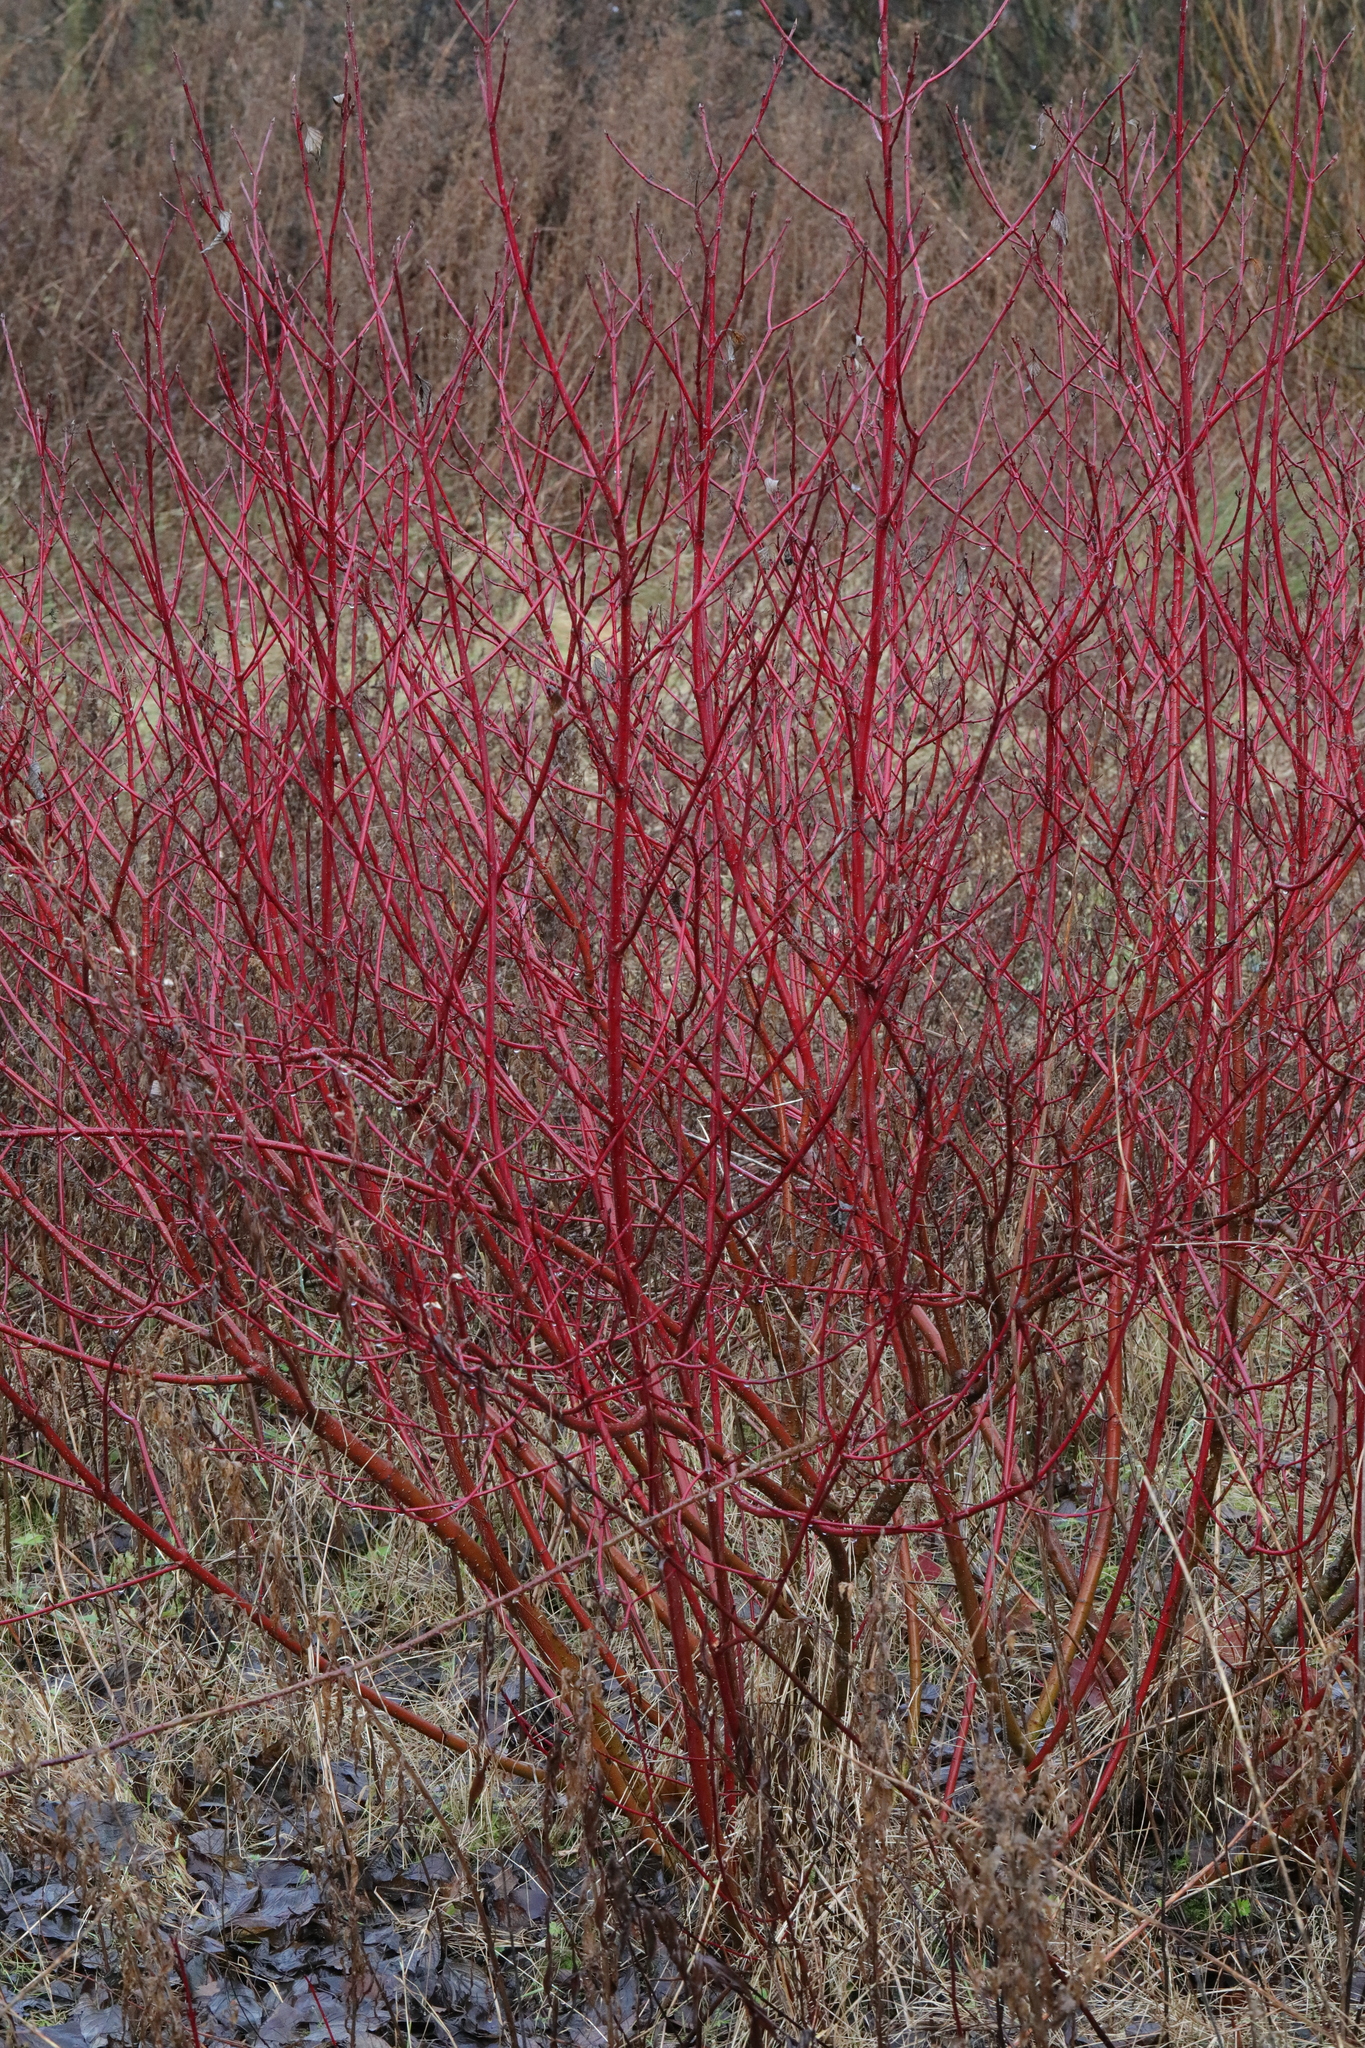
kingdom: Plantae
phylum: Tracheophyta
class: Magnoliopsida
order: Cornales
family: Cornaceae
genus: Cornus
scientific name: Cornus sericea
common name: Red-osier dogwood
